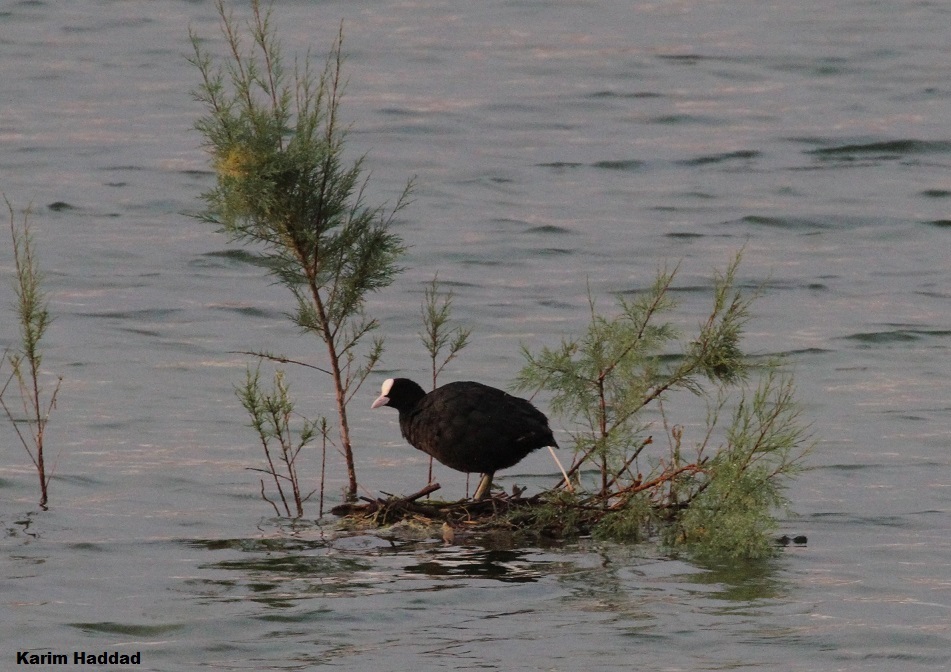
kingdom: Animalia
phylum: Chordata
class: Aves
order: Gruiformes
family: Rallidae
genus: Fulica
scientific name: Fulica atra
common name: Eurasian coot
